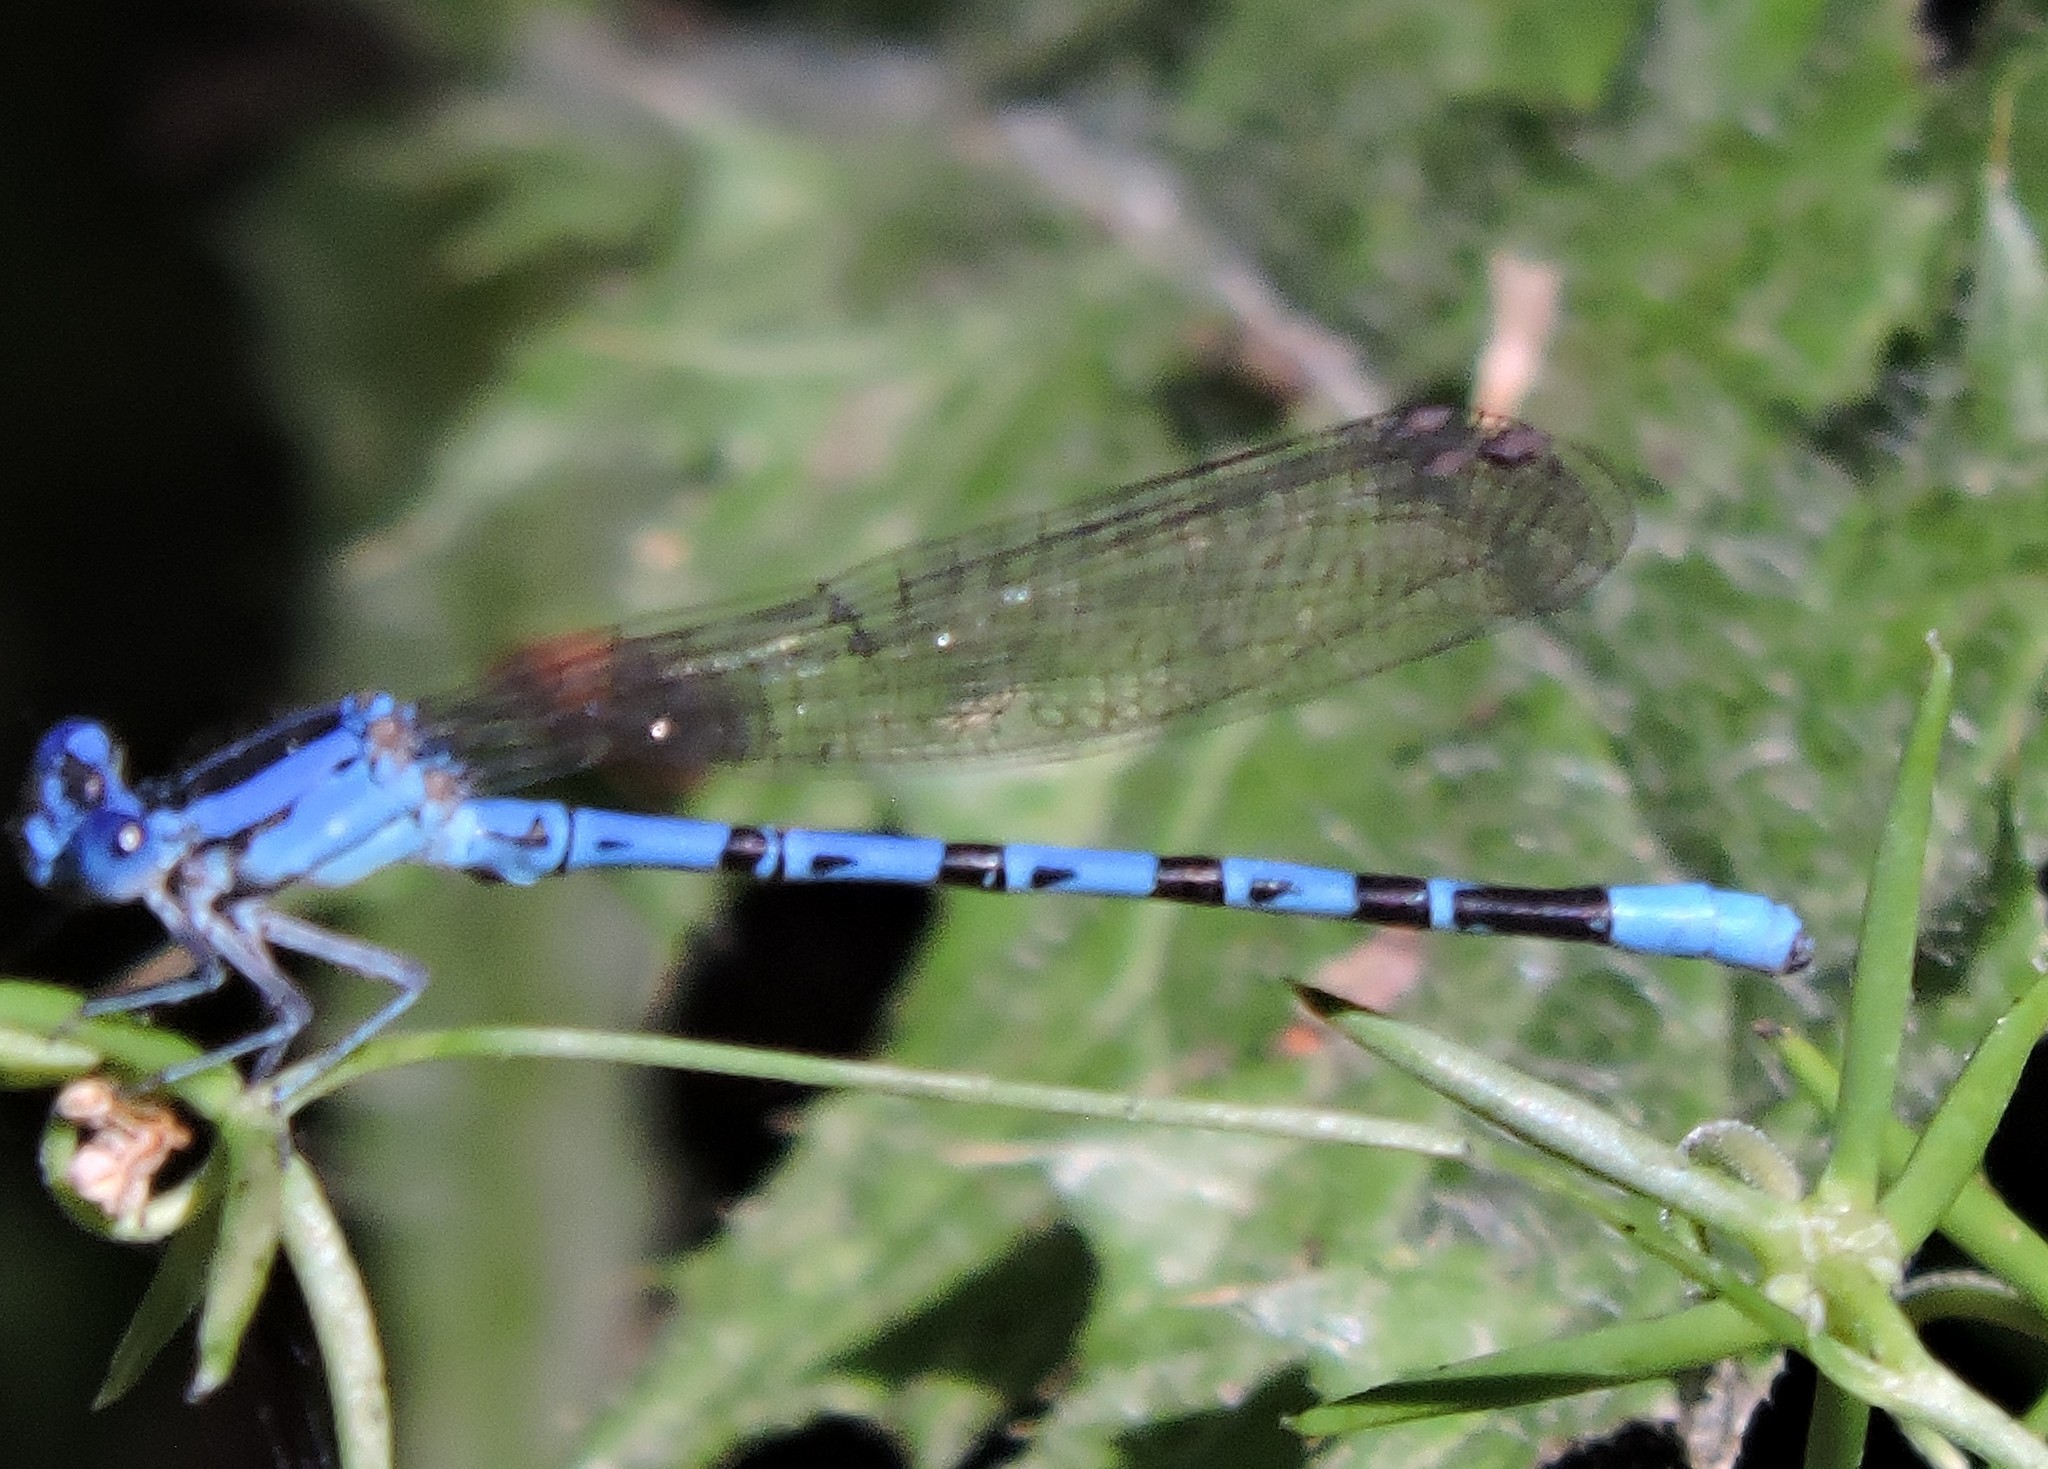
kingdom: Animalia
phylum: Arthropoda
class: Insecta
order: Odonata
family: Coenagrionidae
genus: Argia
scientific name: Argia vivida
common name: Vivid dancer
